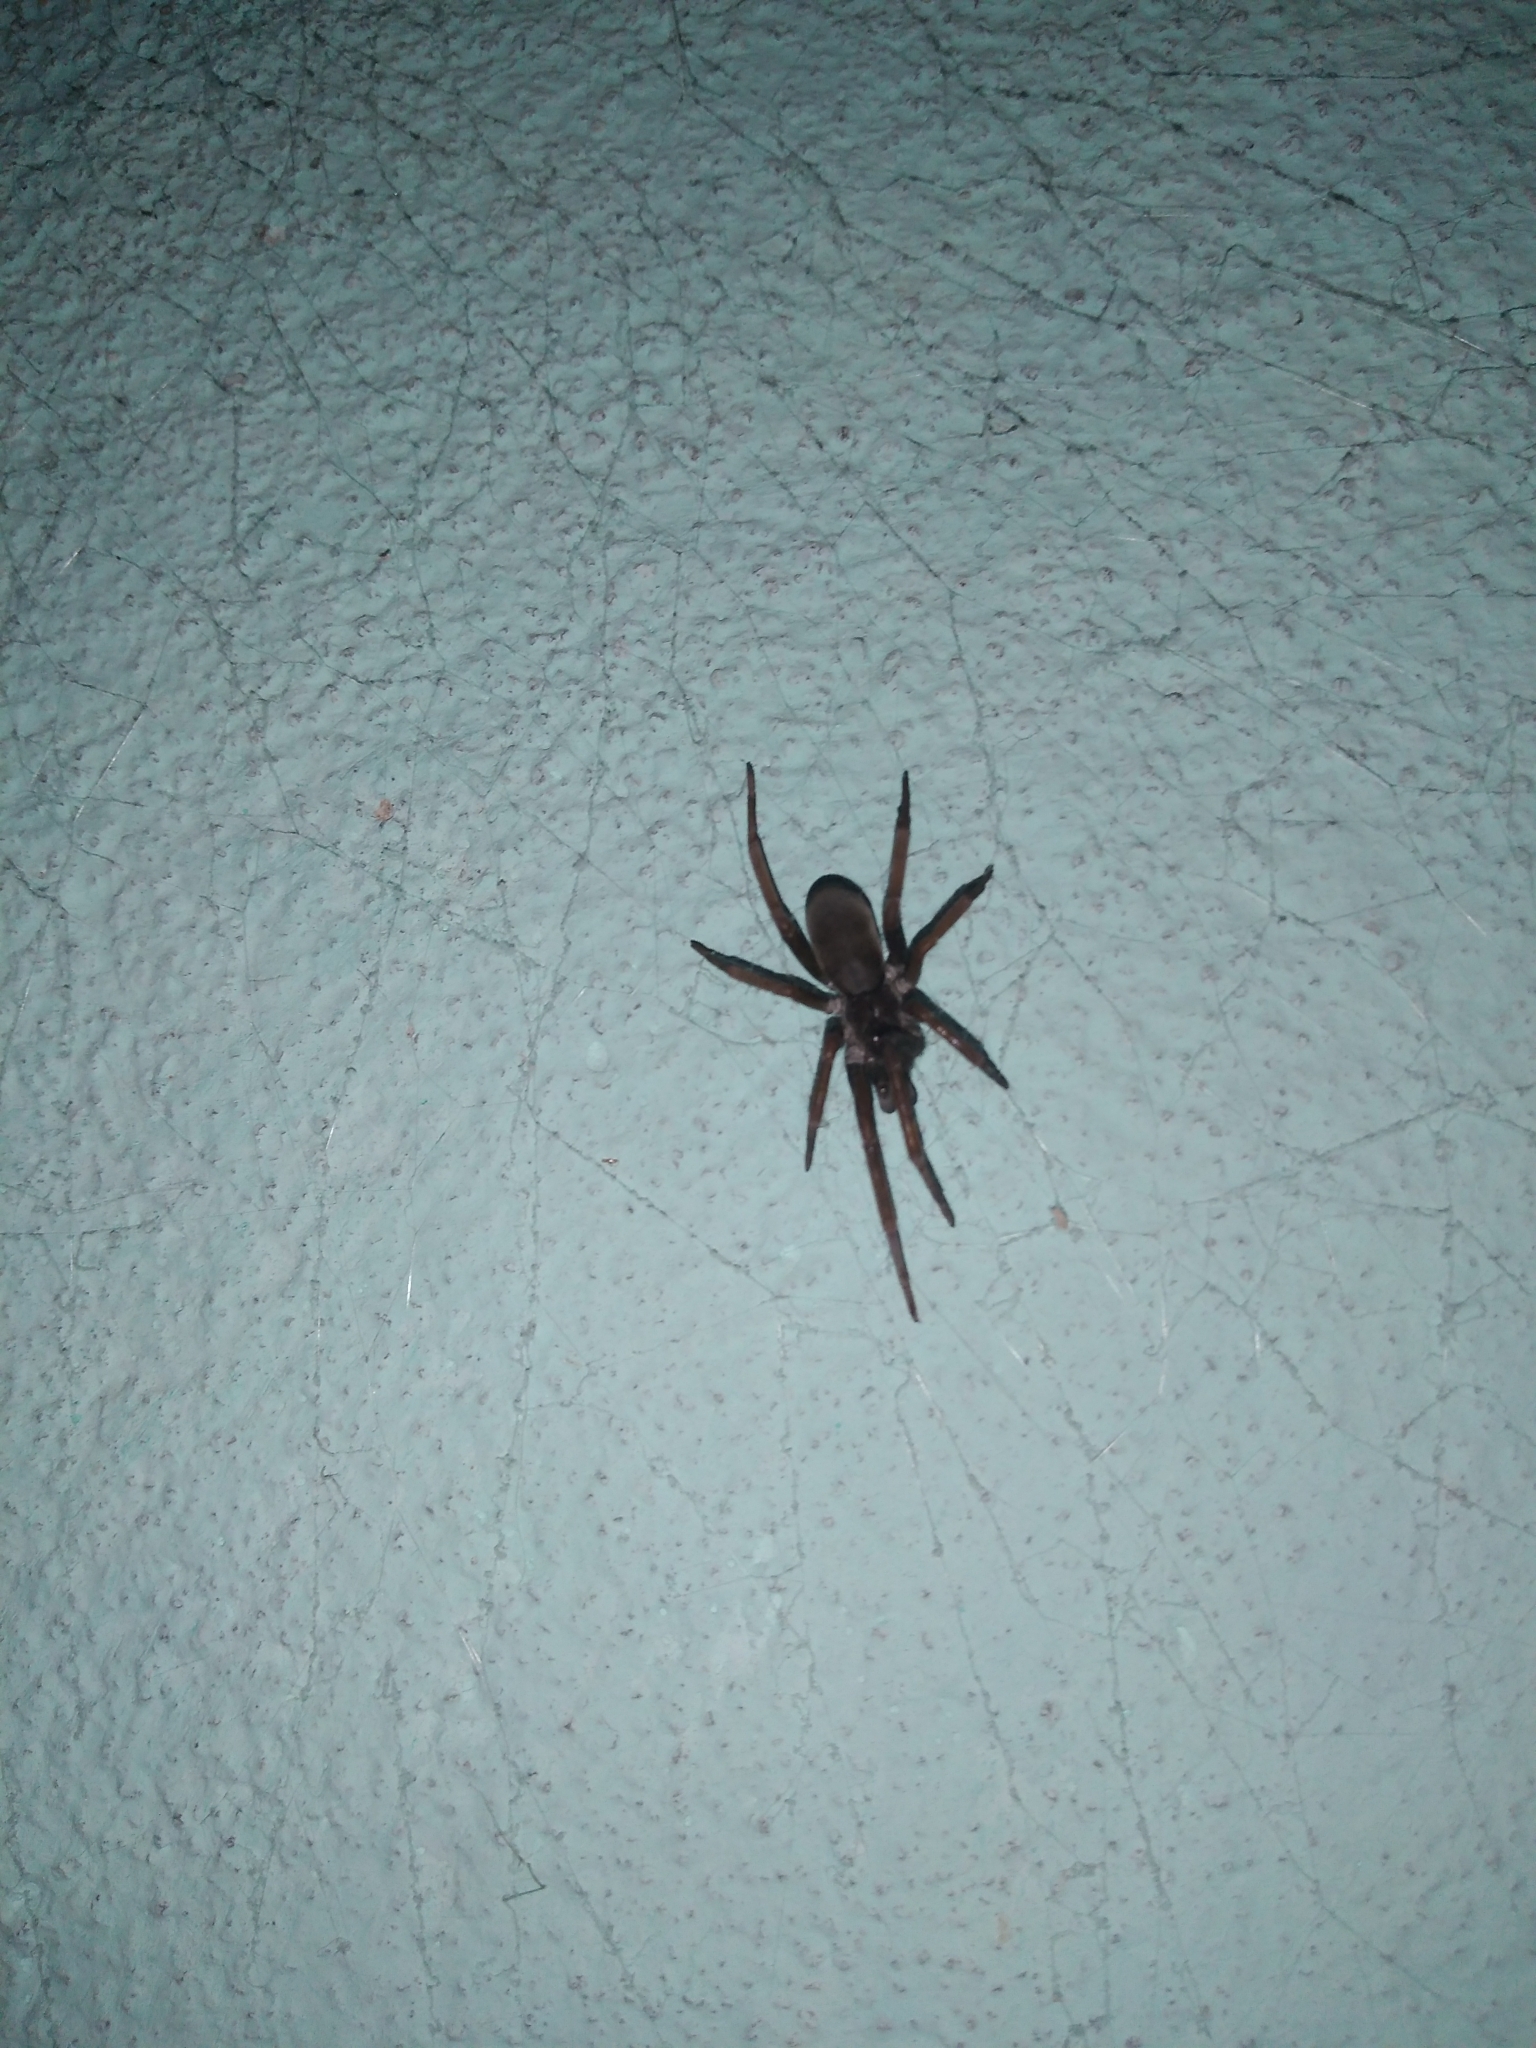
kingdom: Animalia
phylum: Arthropoda
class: Arachnida
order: Araneae
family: Filistatidae
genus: Kukulcania
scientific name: Kukulcania hibernalis
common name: Crevice weaver
